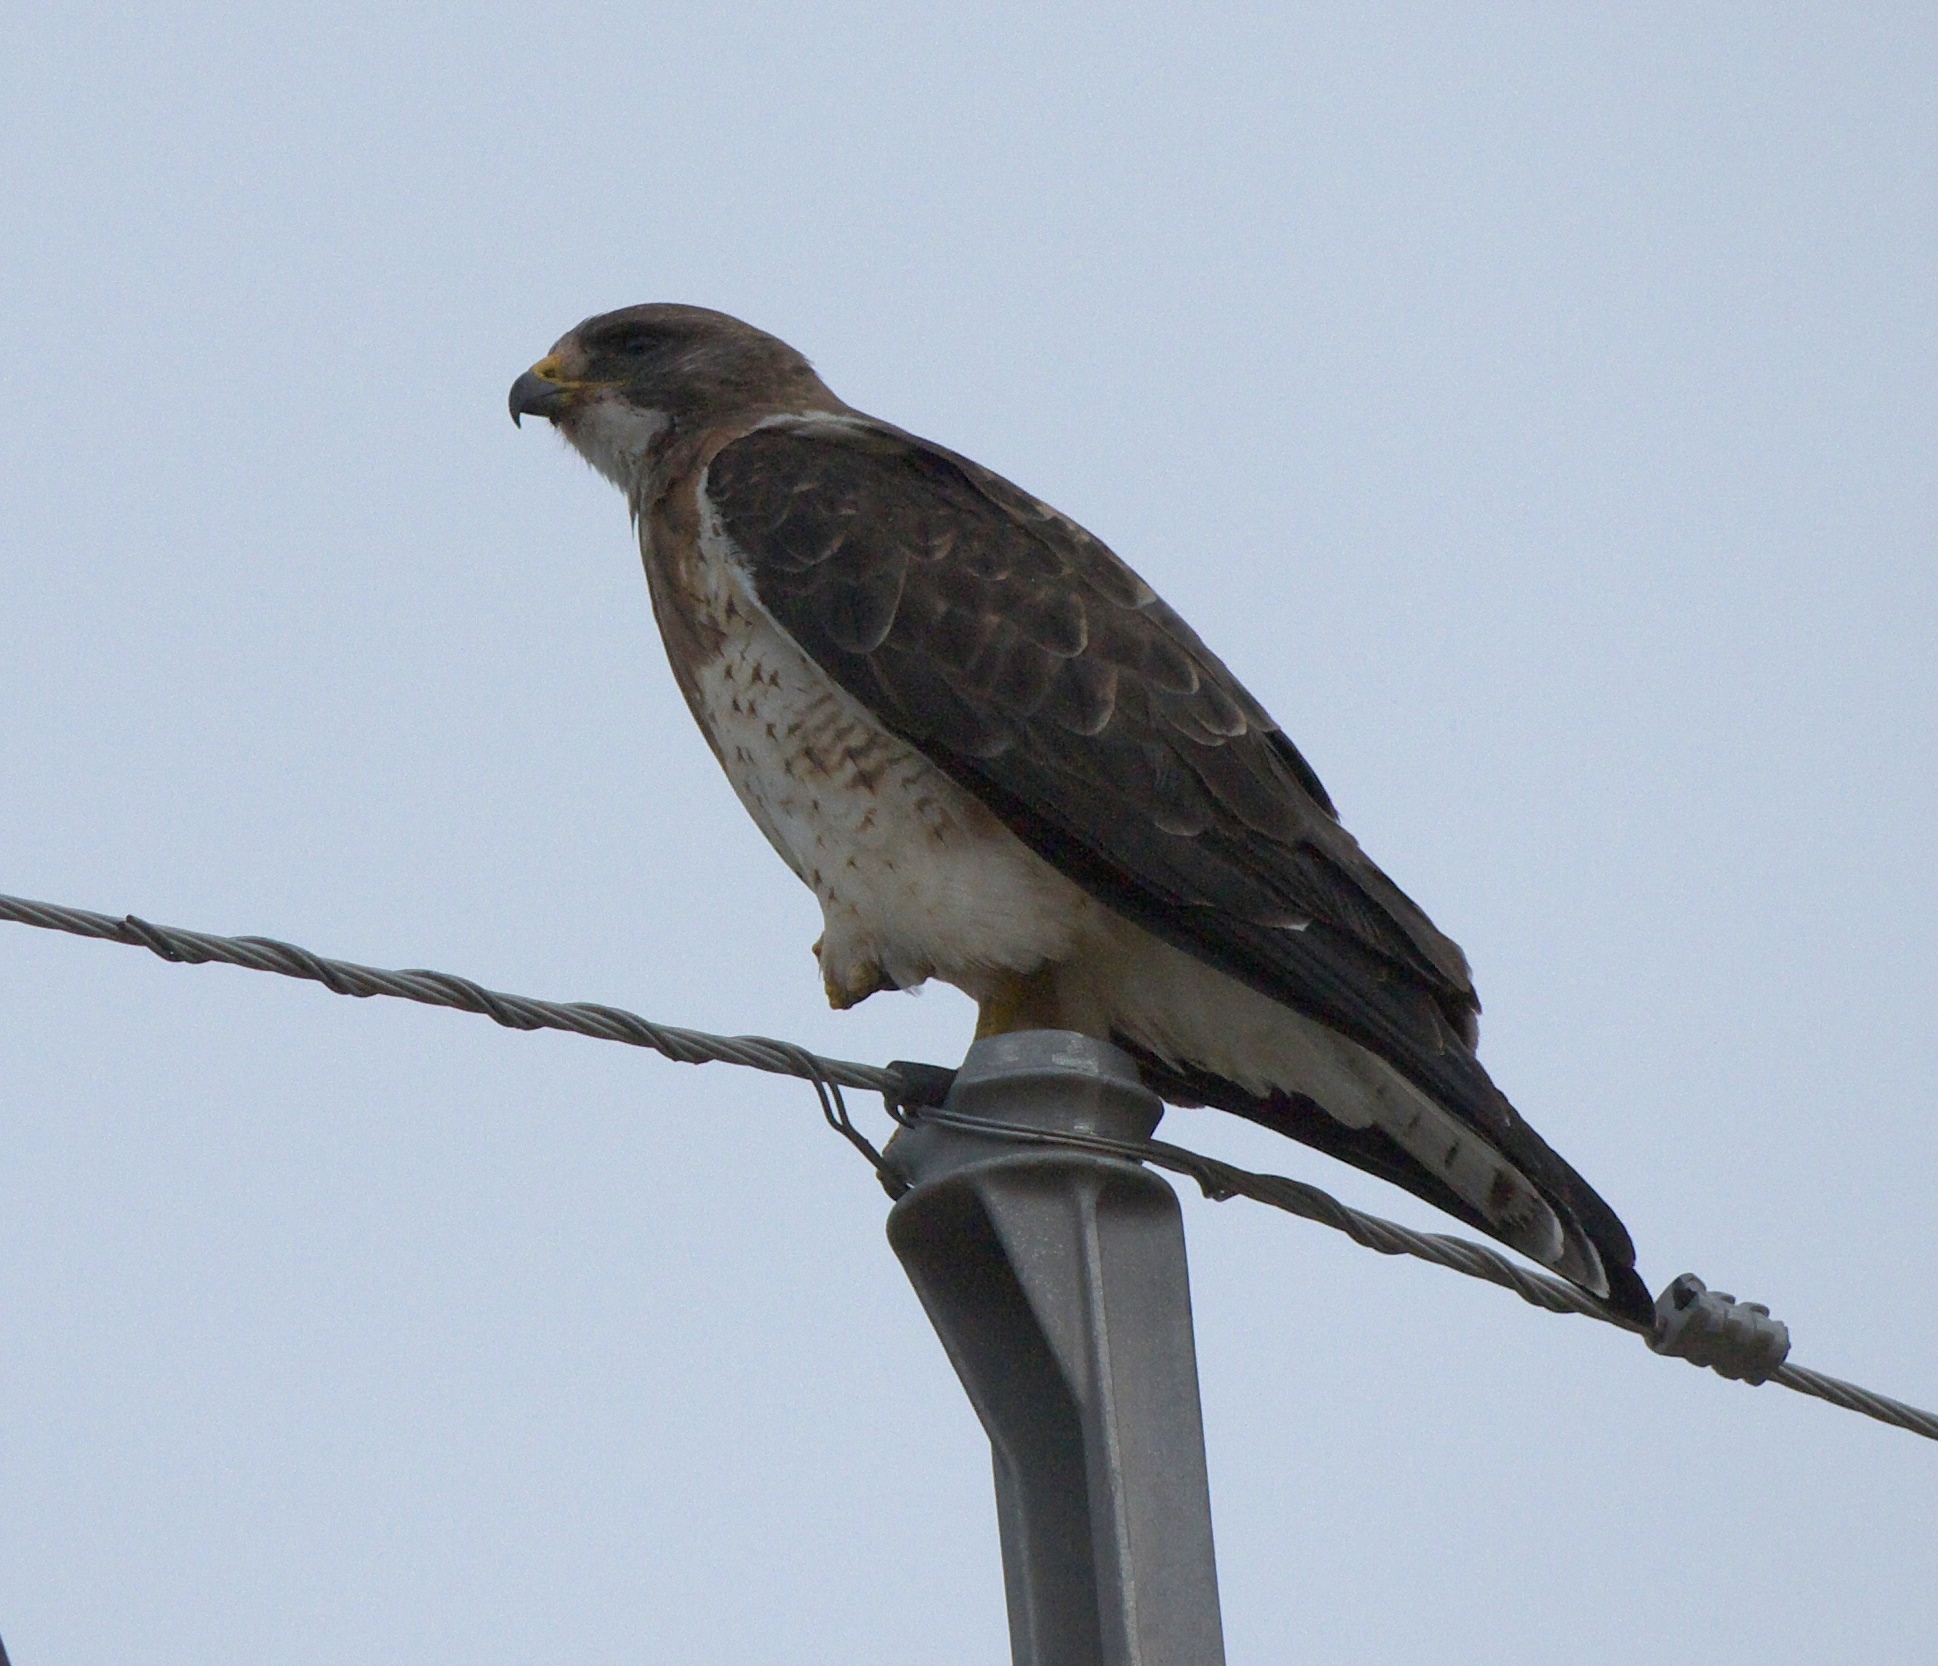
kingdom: Animalia
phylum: Chordata
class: Aves
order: Accipitriformes
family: Accipitridae
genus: Buteo
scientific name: Buteo swainsoni
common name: Swainson's hawk
